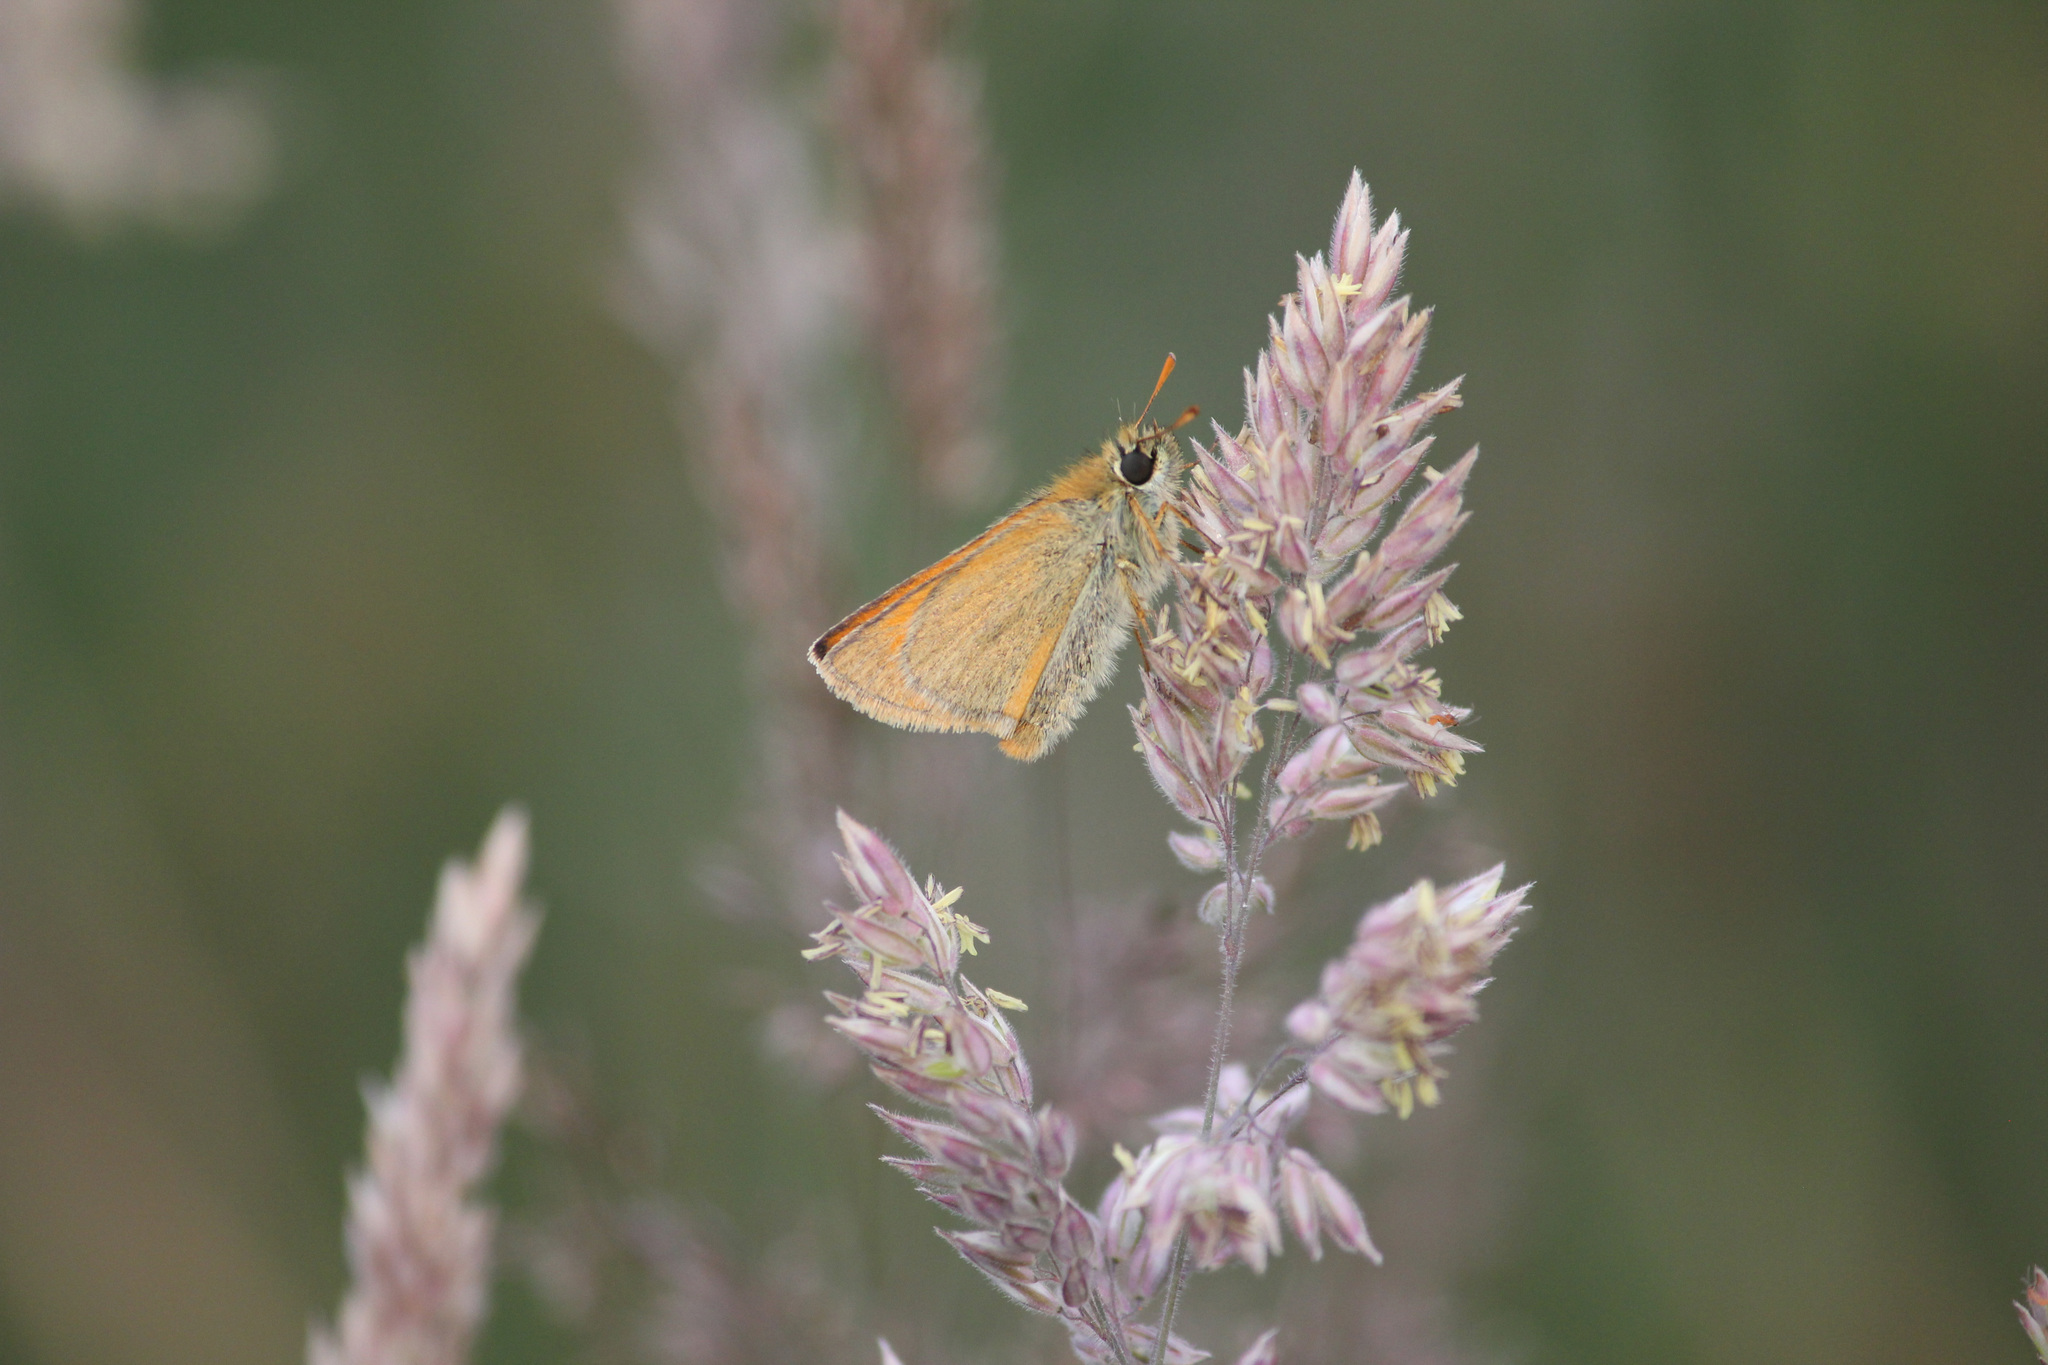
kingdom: Animalia
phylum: Arthropoda
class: Insecta
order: Lepidoptera
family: Hesperiidae
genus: Thymelicus
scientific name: Thymelicus sylvestris
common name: Small skipper
